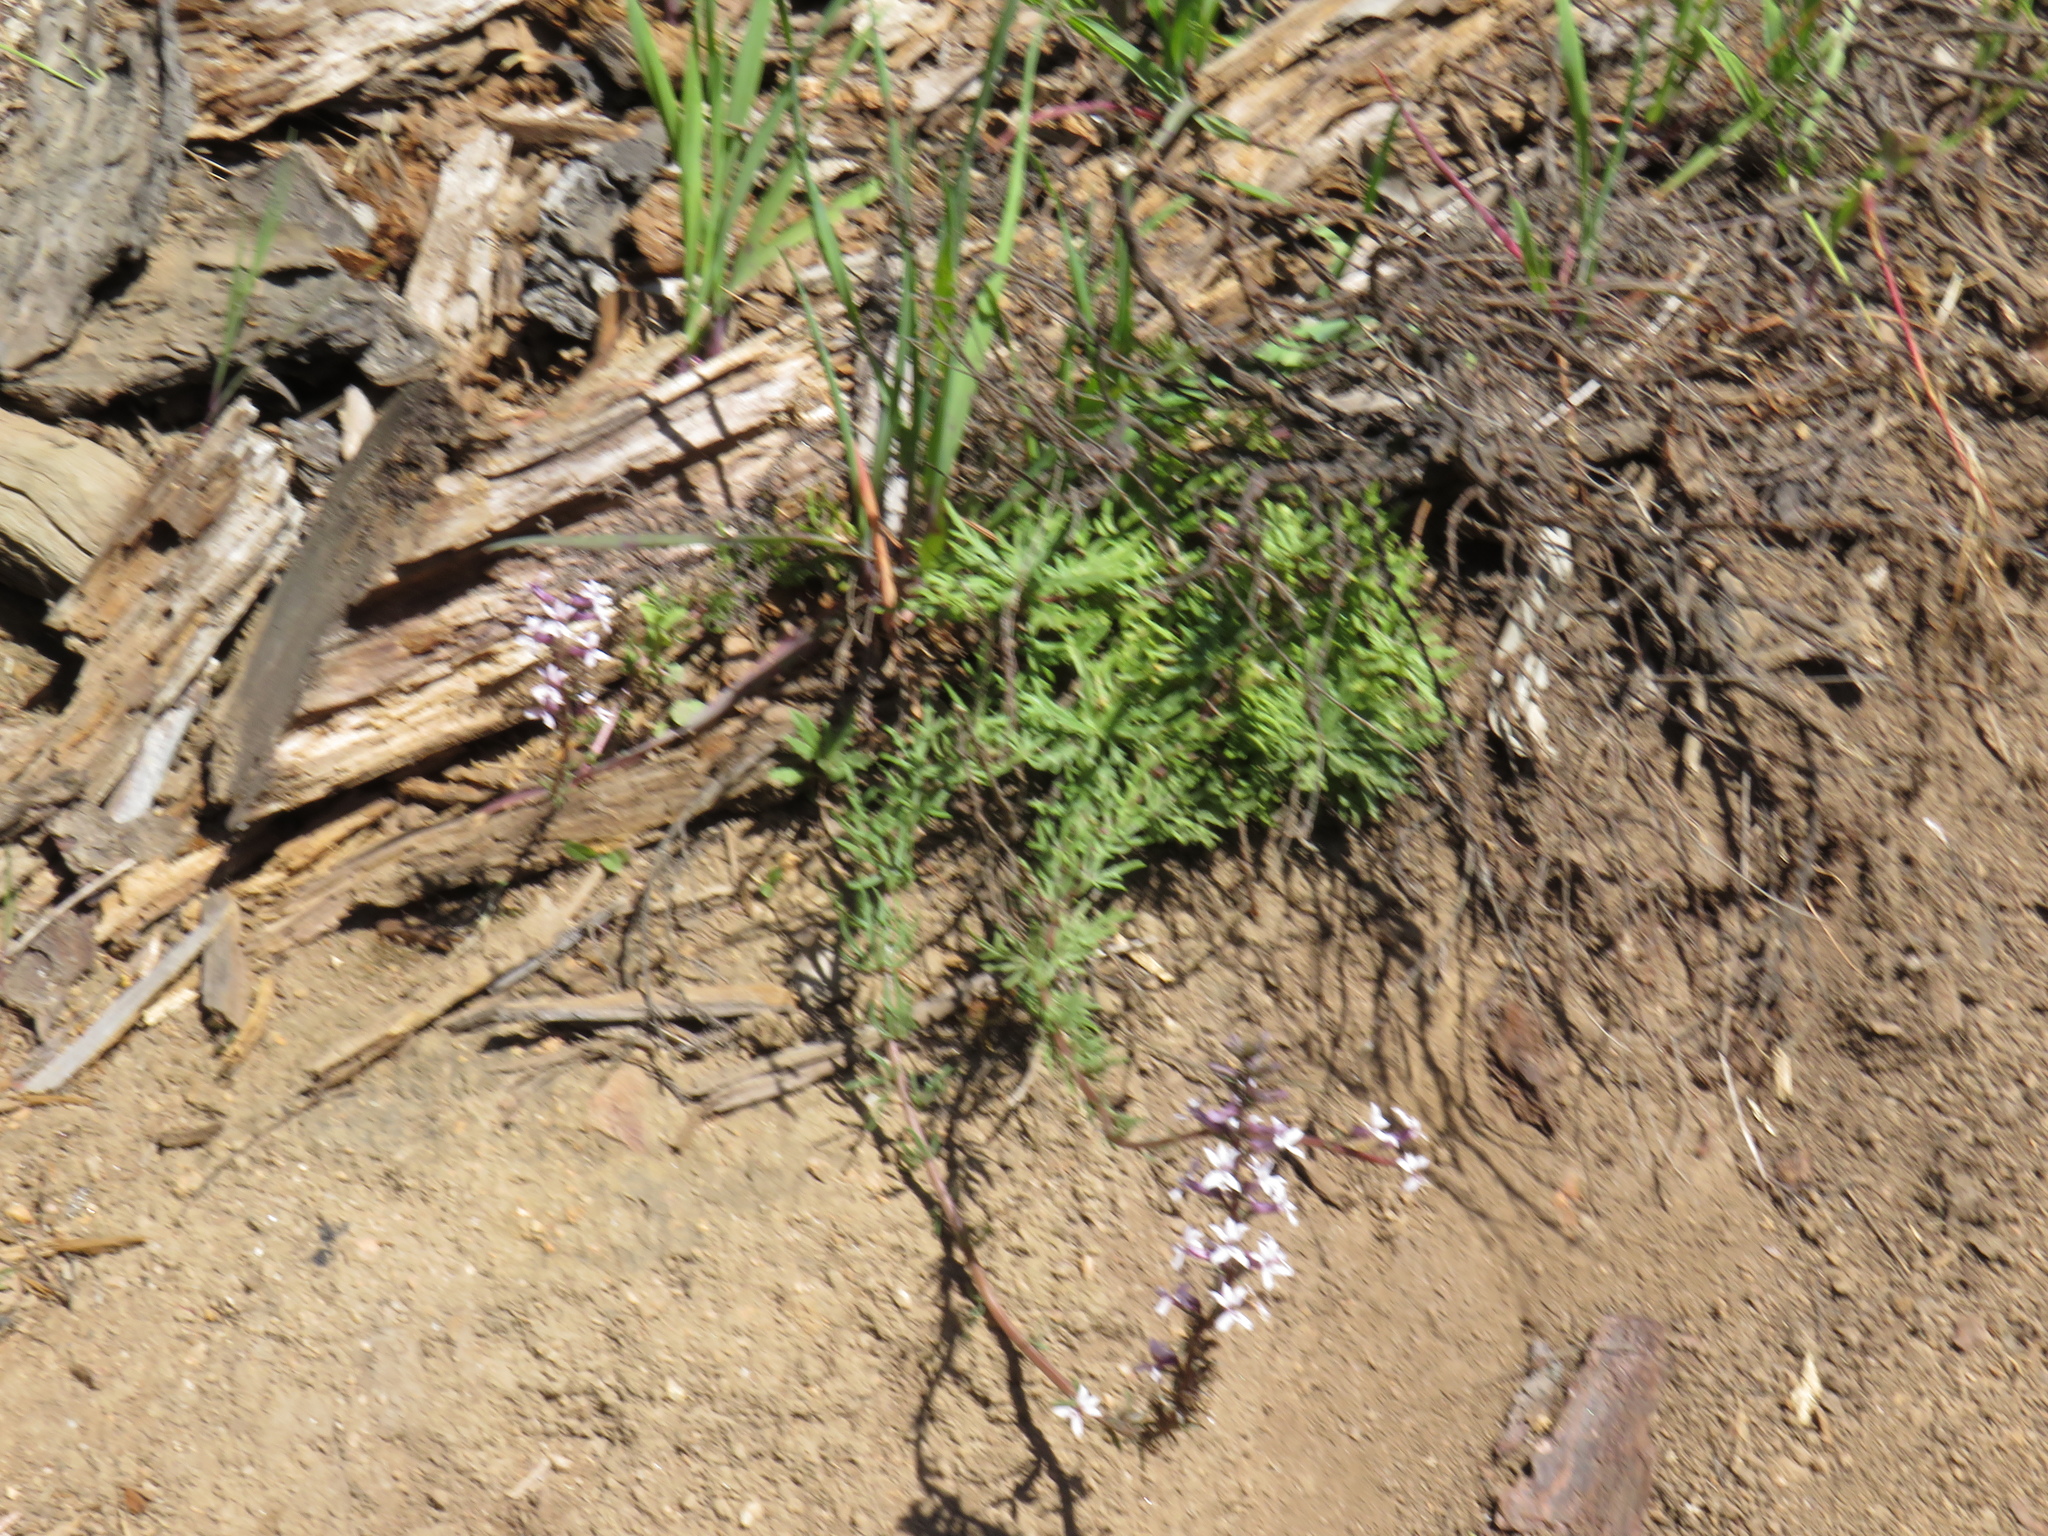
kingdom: Plantae
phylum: Tracheophyta
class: Magnoliopsida
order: Asterales
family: Campanulaceae
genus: Cyphia
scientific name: Cyphia bulbosa
